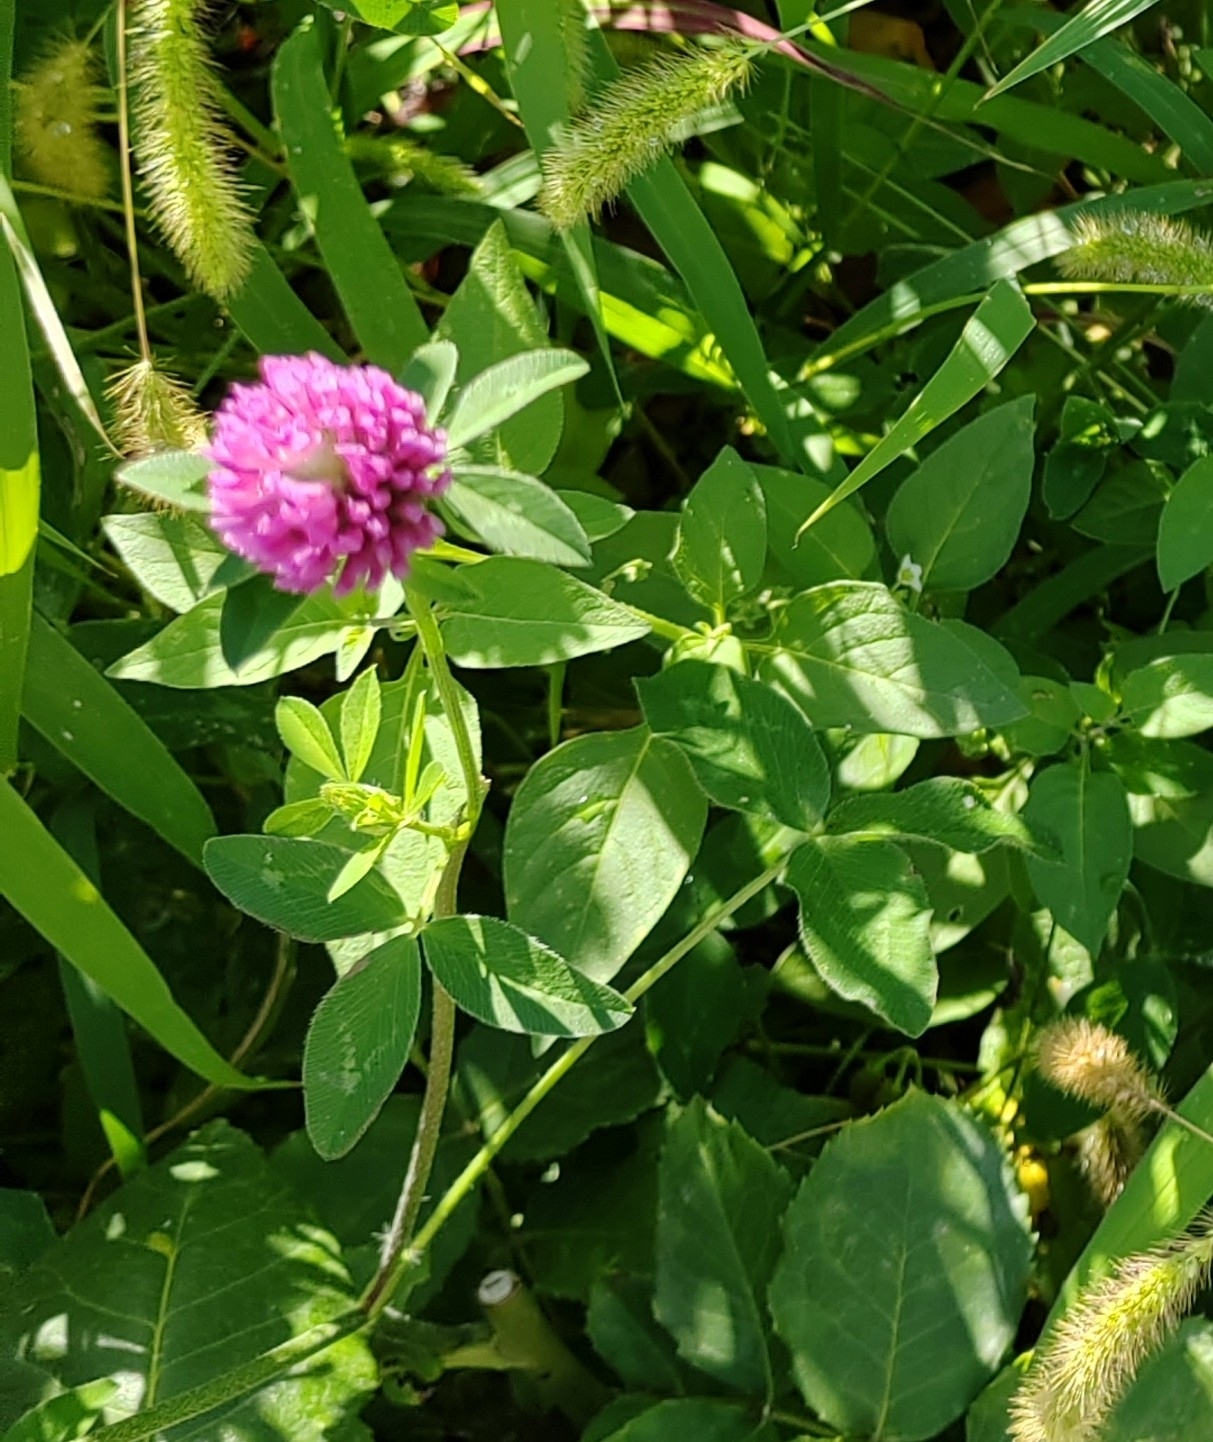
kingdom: Plantae
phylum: Tracheophyta
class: Magnoliopsida
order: Fabales
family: Fabaceae
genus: Trifolium
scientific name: Trifolium pratense
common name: Red clover
